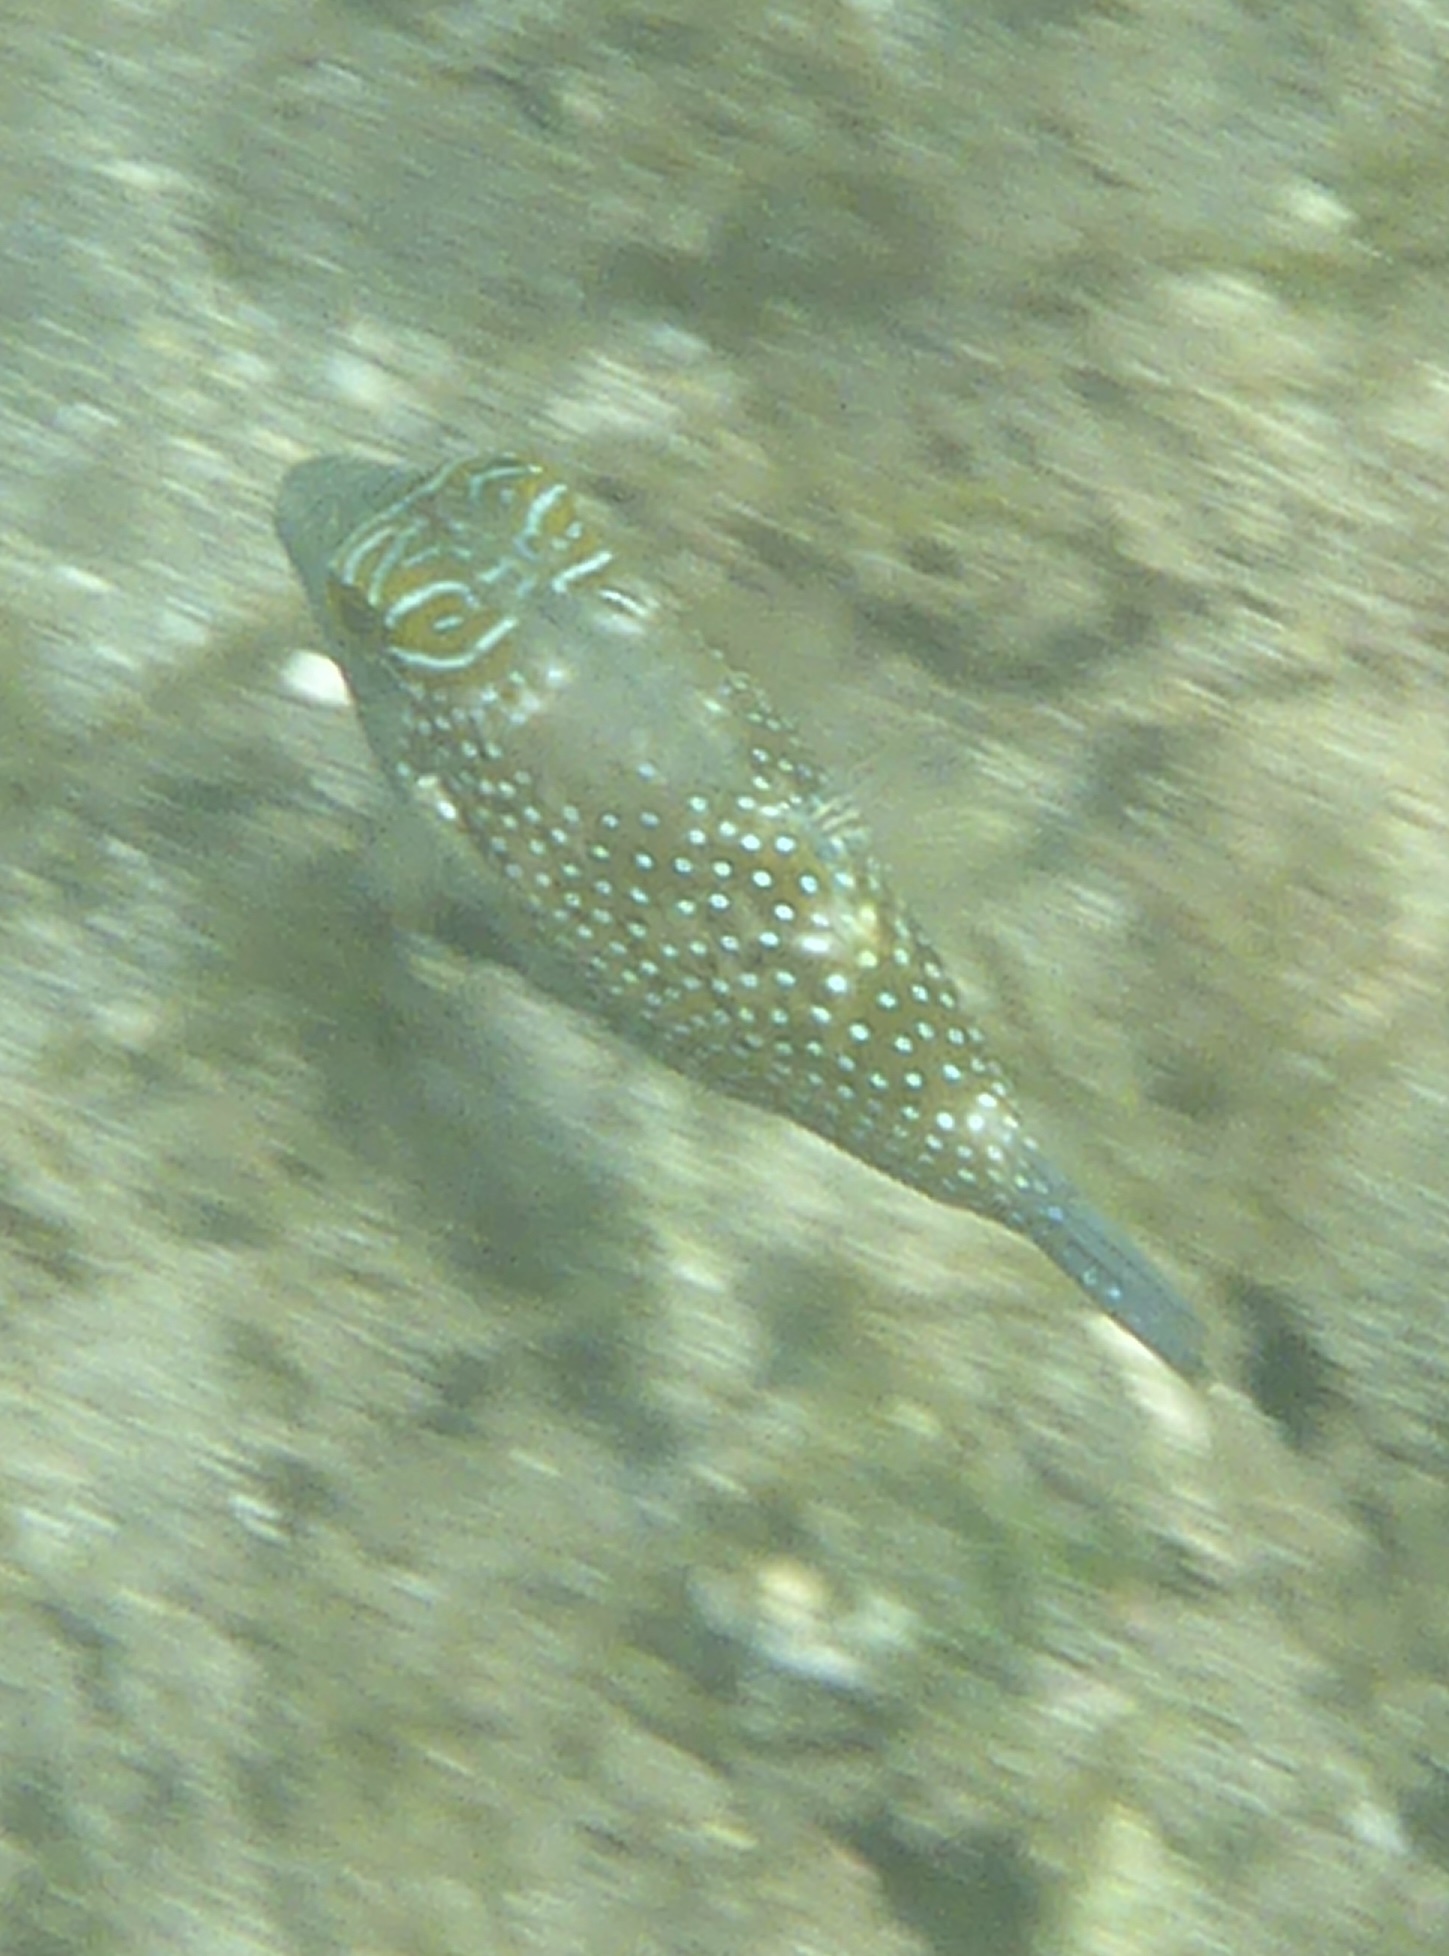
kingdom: Animalia
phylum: Chordata
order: Tetraodontiformes
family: Tetraodontidae
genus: Canthigaster
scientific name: Canthigaster amboinensis
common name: Ambon pufferfish
